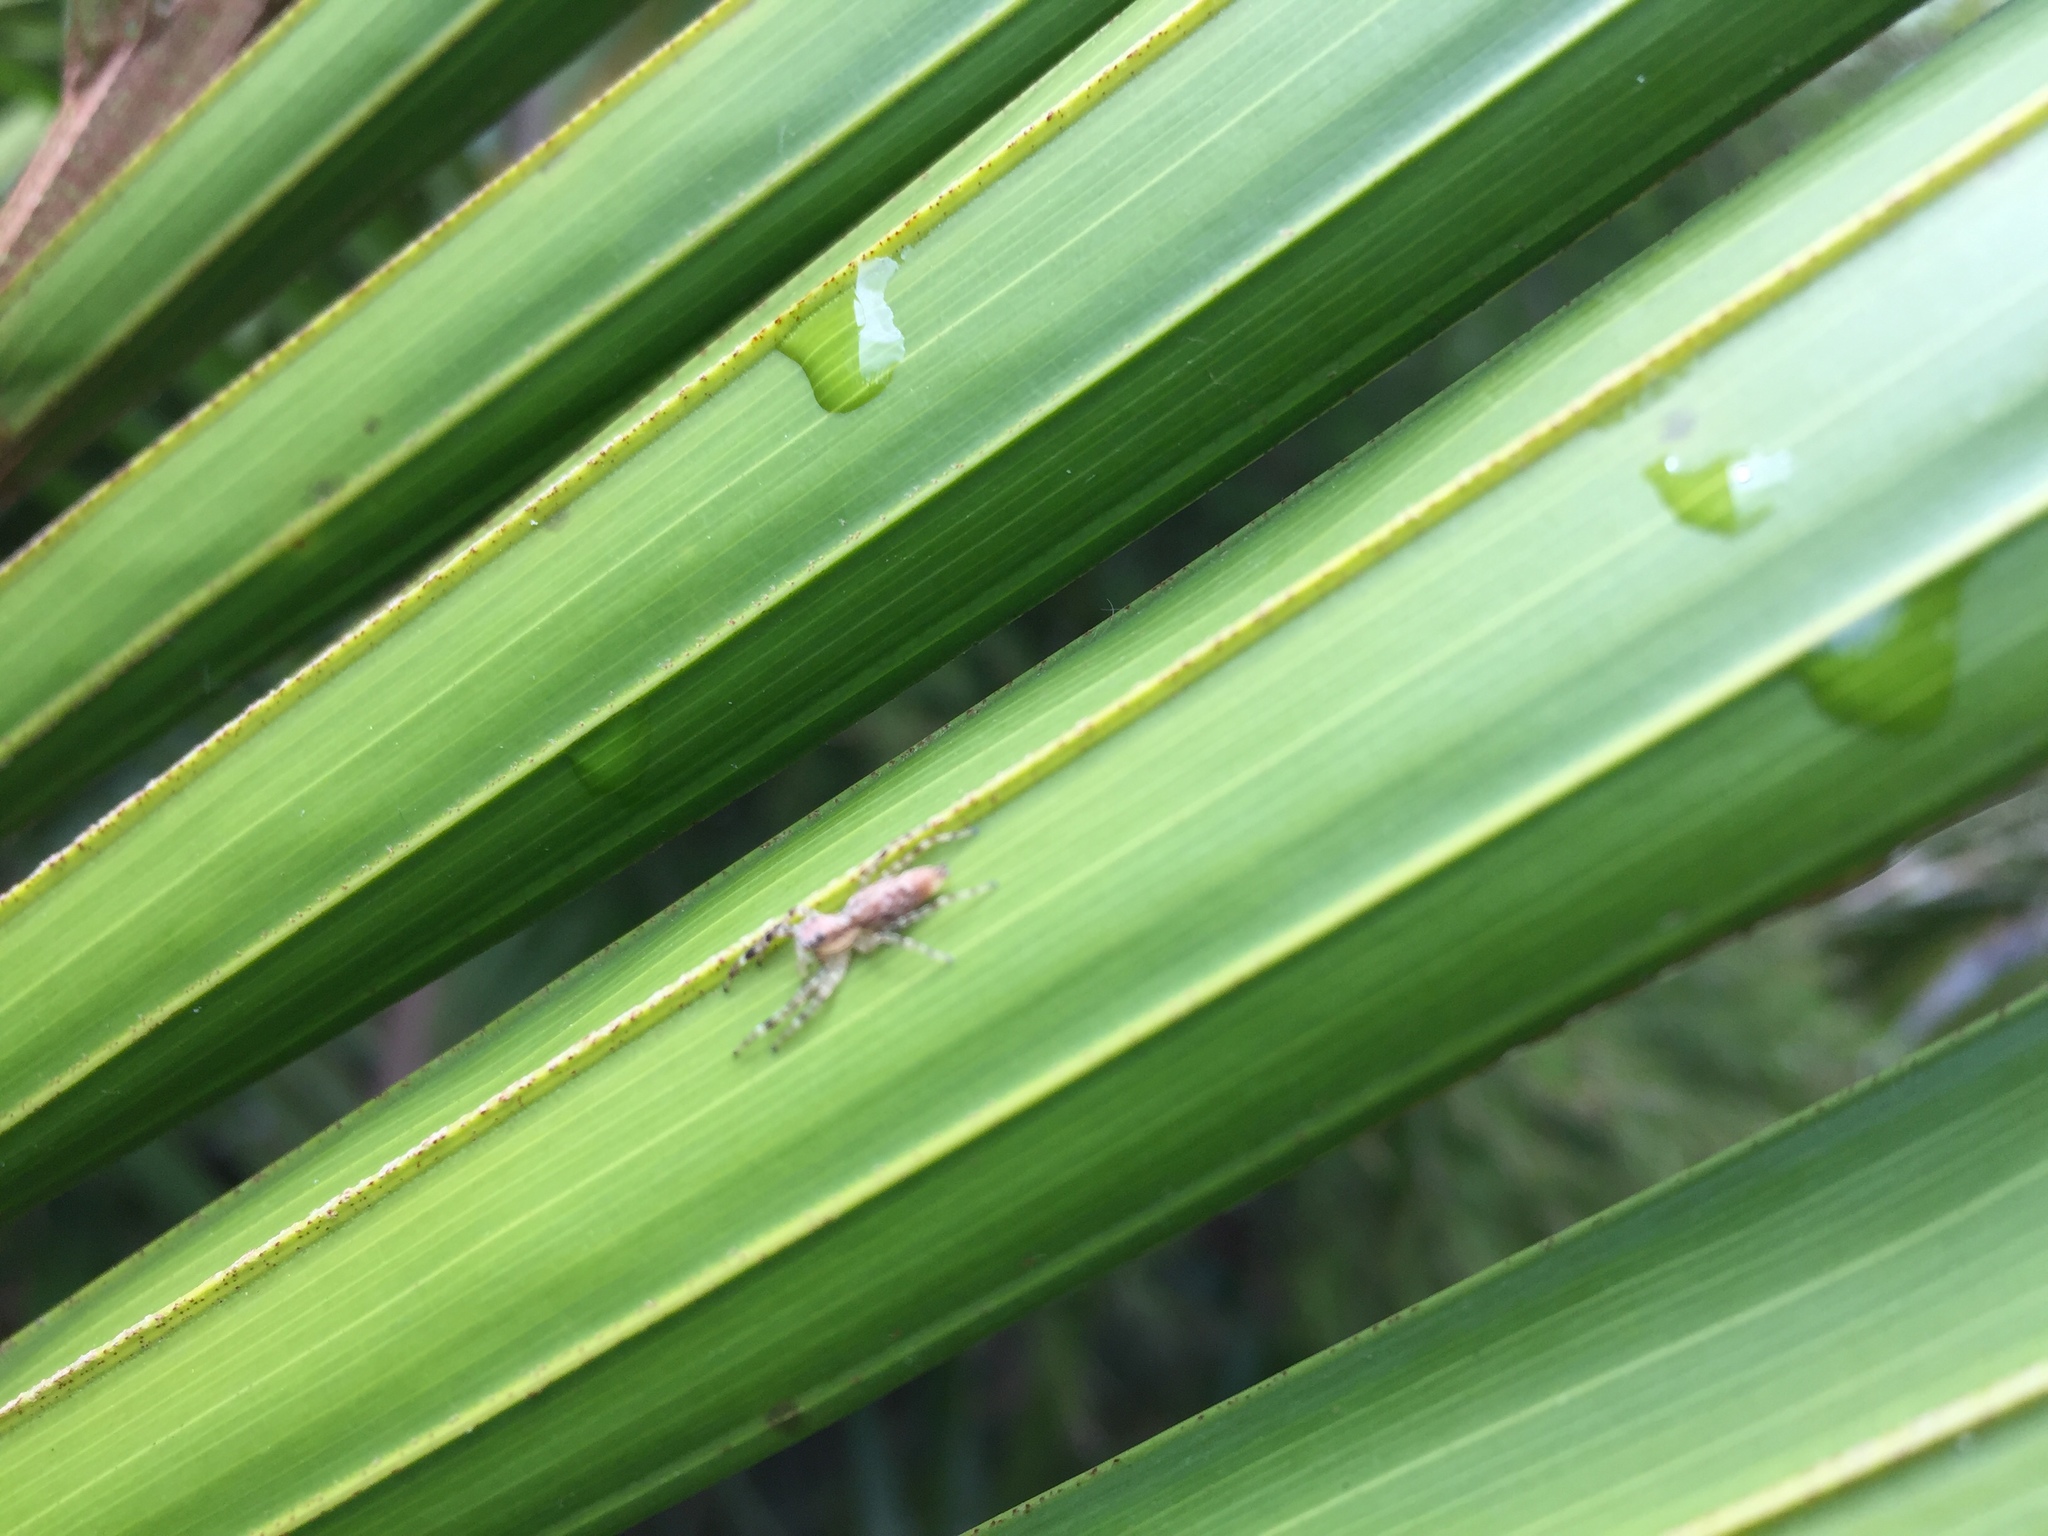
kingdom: Animalia
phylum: Arthropoda
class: Arachnida
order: Araneae
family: Salticidae
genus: Helpis
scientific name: Helpis minitabunda
